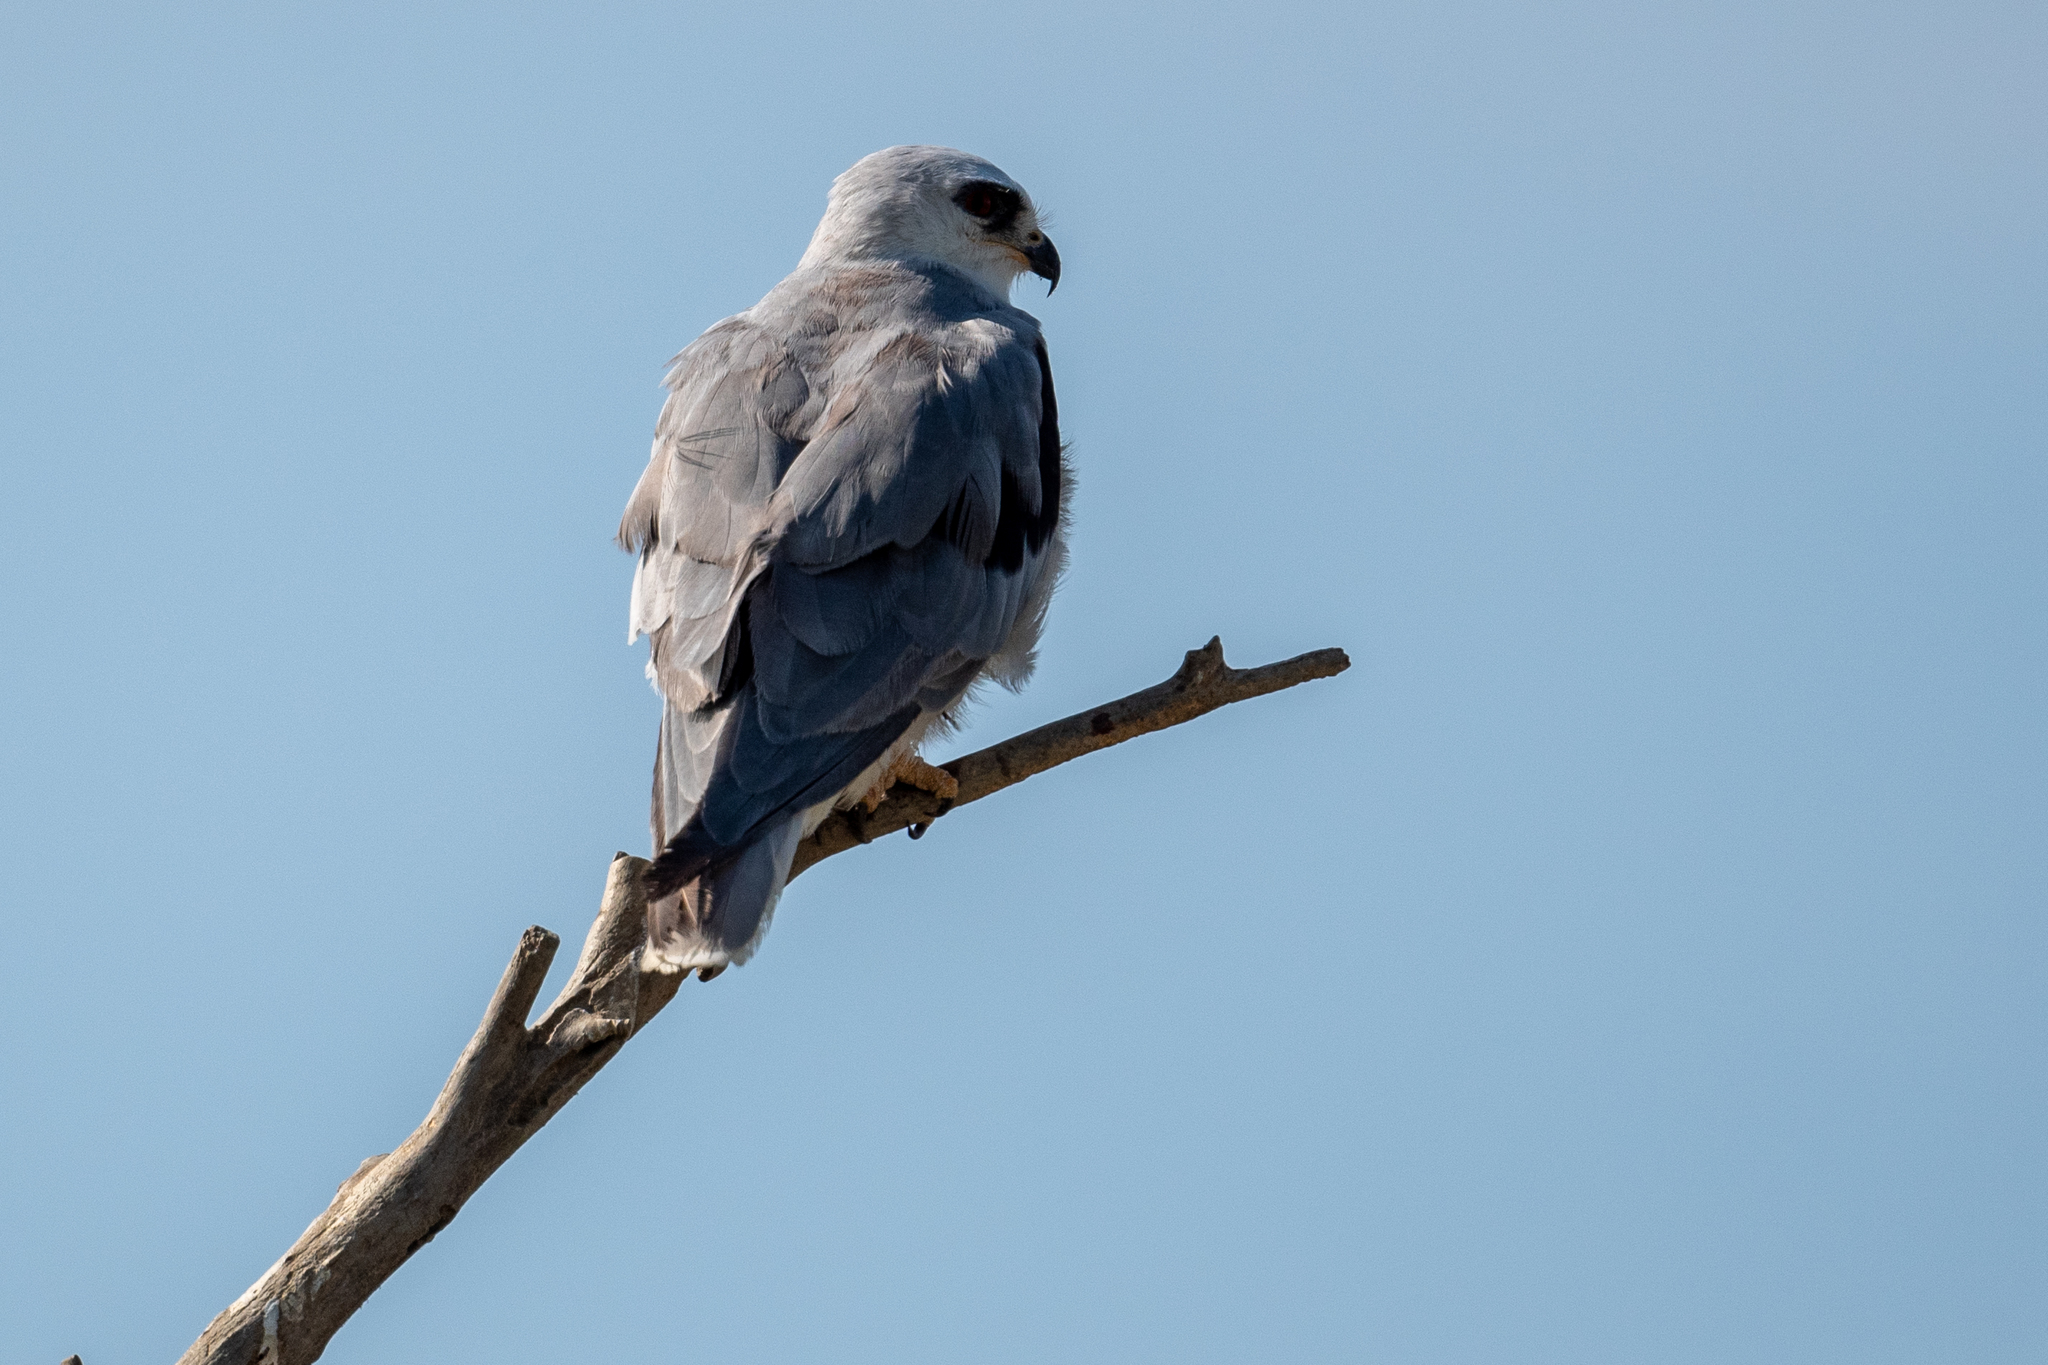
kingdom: Animalia
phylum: Chordata
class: Aves
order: Accipitriformes
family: Accipitridae
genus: Elanus
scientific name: Elanus leucurus
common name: White-tailed kite
